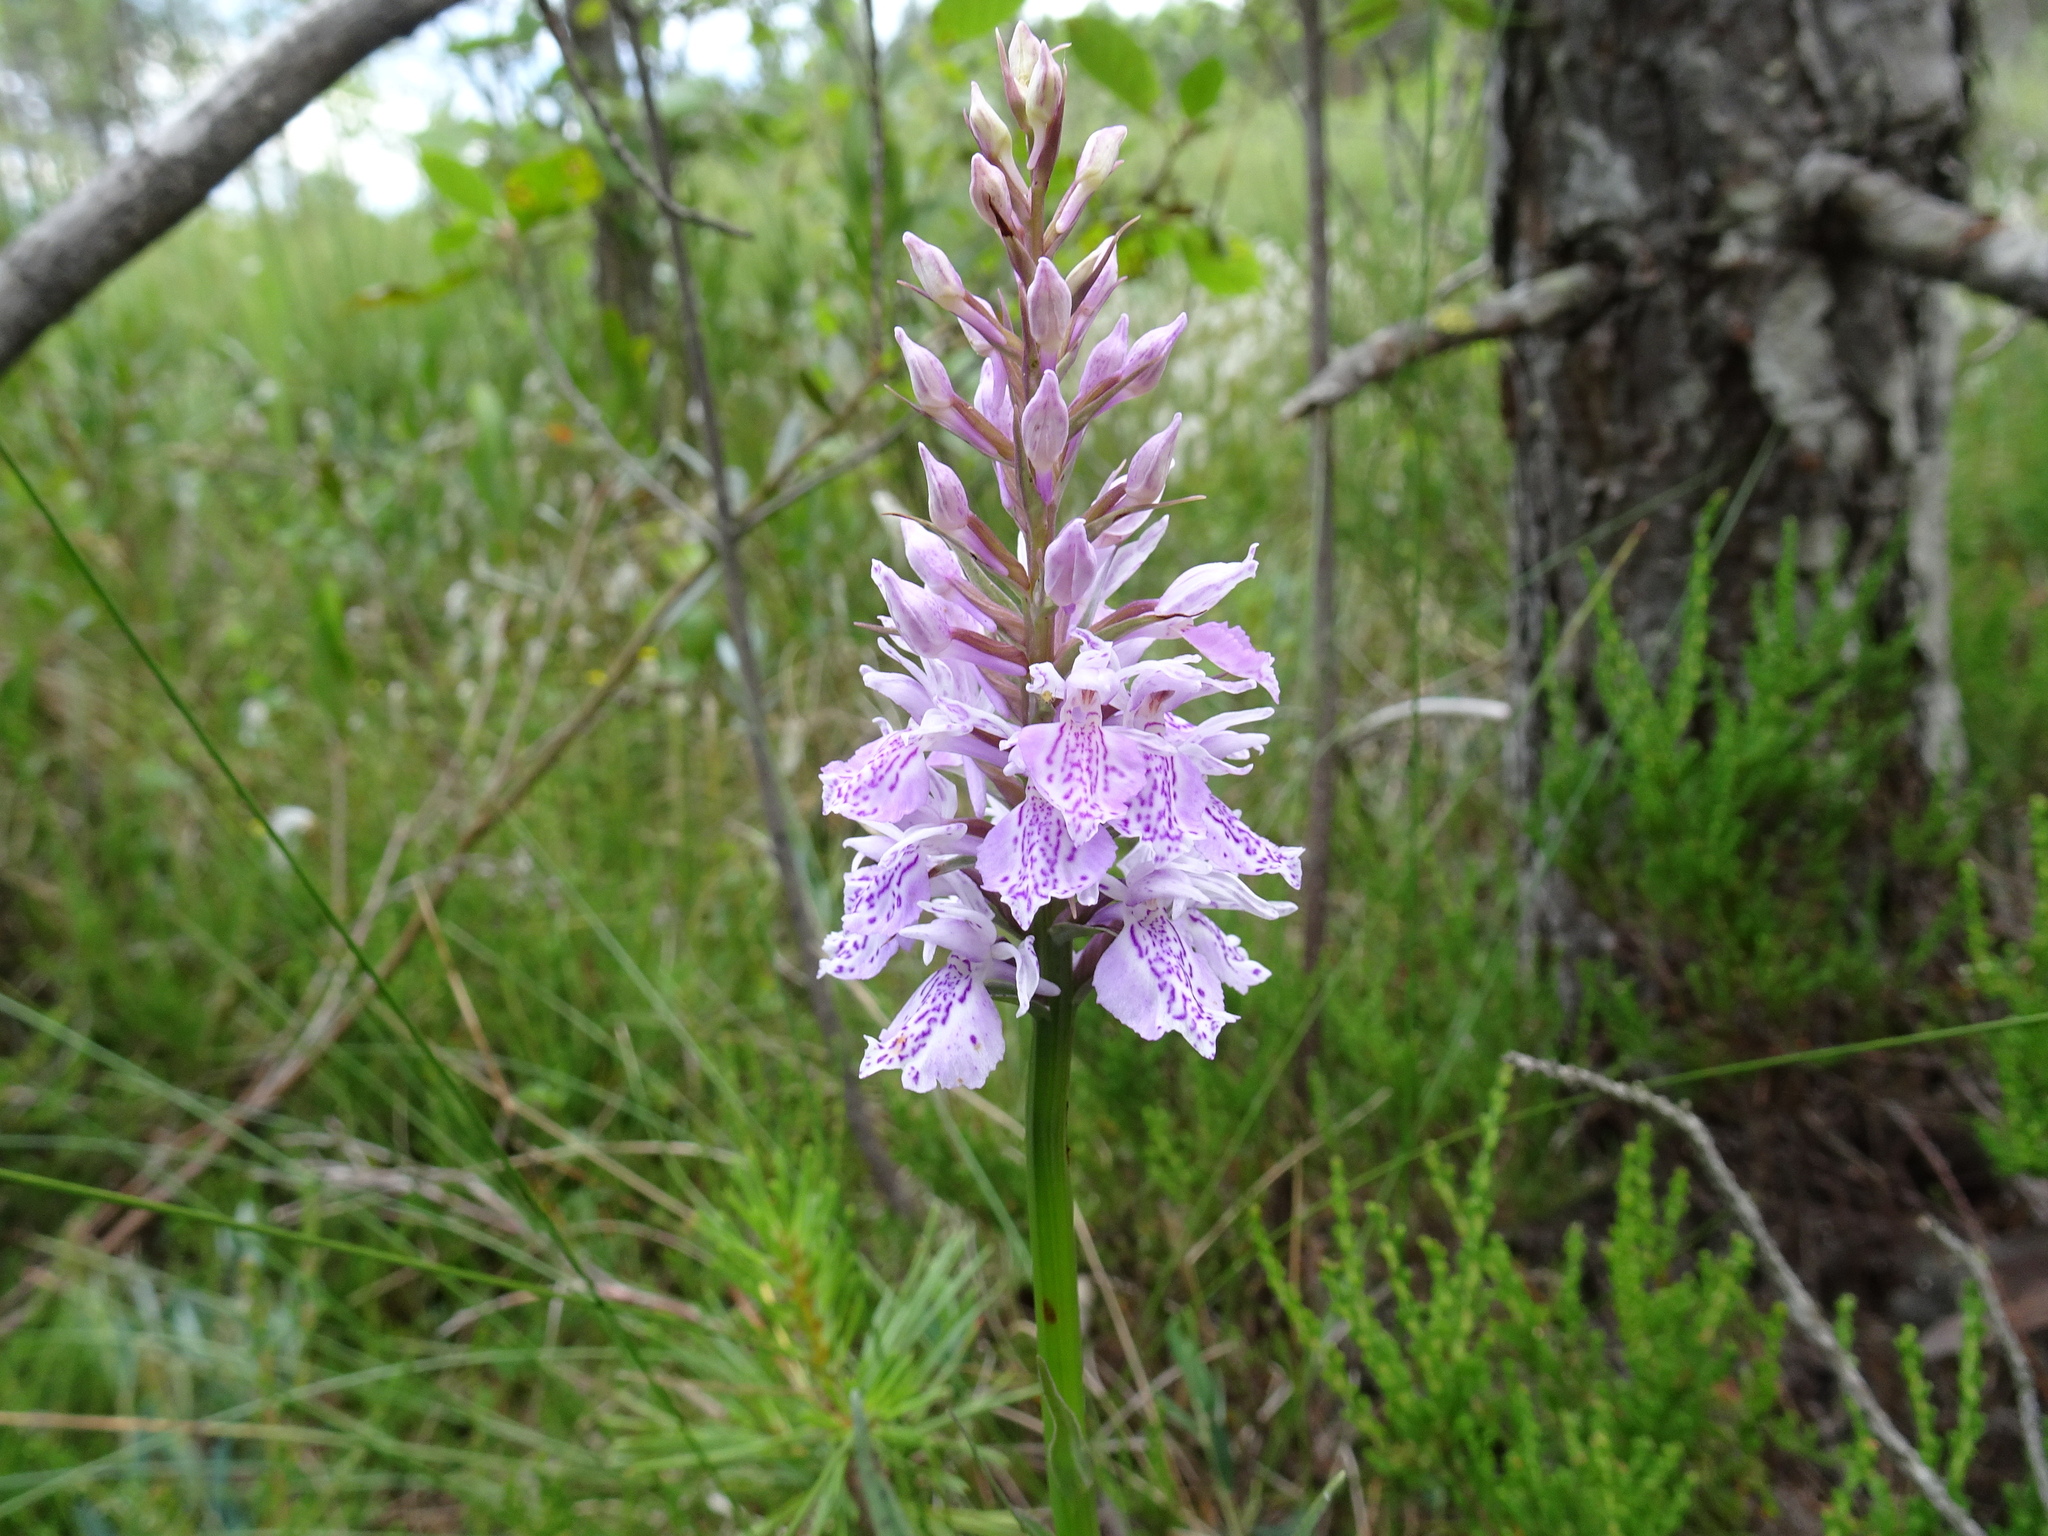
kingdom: Plantae
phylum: Tracheophyta
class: Liliopsida
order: Asparagales
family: Orchidaceae
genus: Dactylorhiza
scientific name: Dactylorhiza maculata
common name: Heath spotted-orchid
